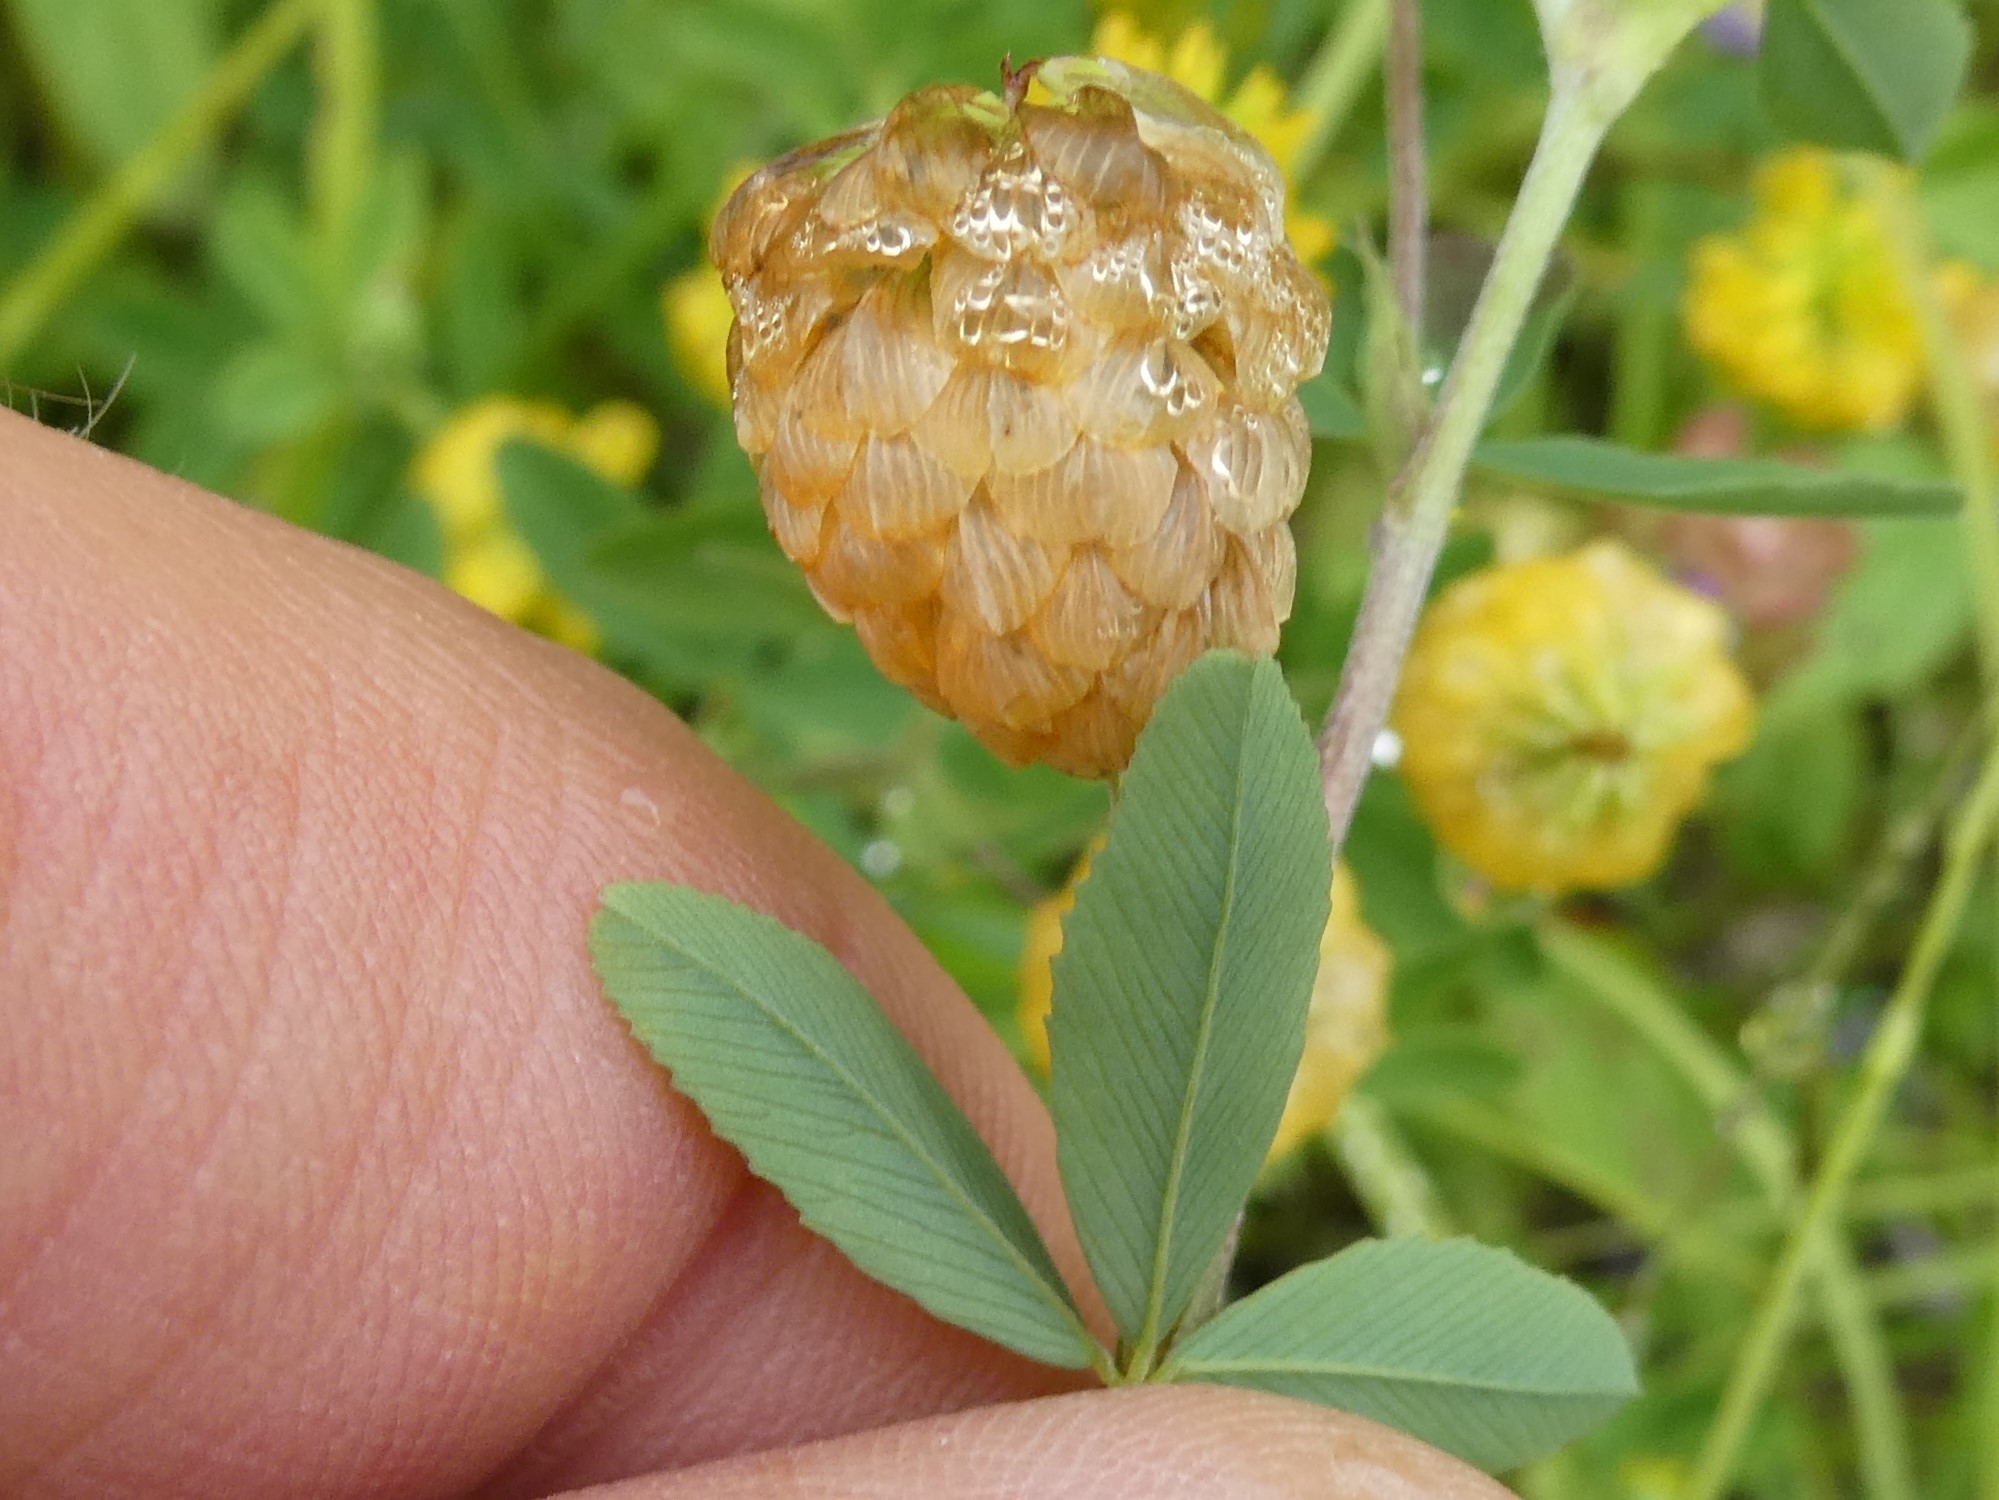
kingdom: Plantae
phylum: Tracheophyta
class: Magnoliopsida
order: Fabales
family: Fabaceae
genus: Trifolium
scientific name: Trifolium aureum
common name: Golden clover
